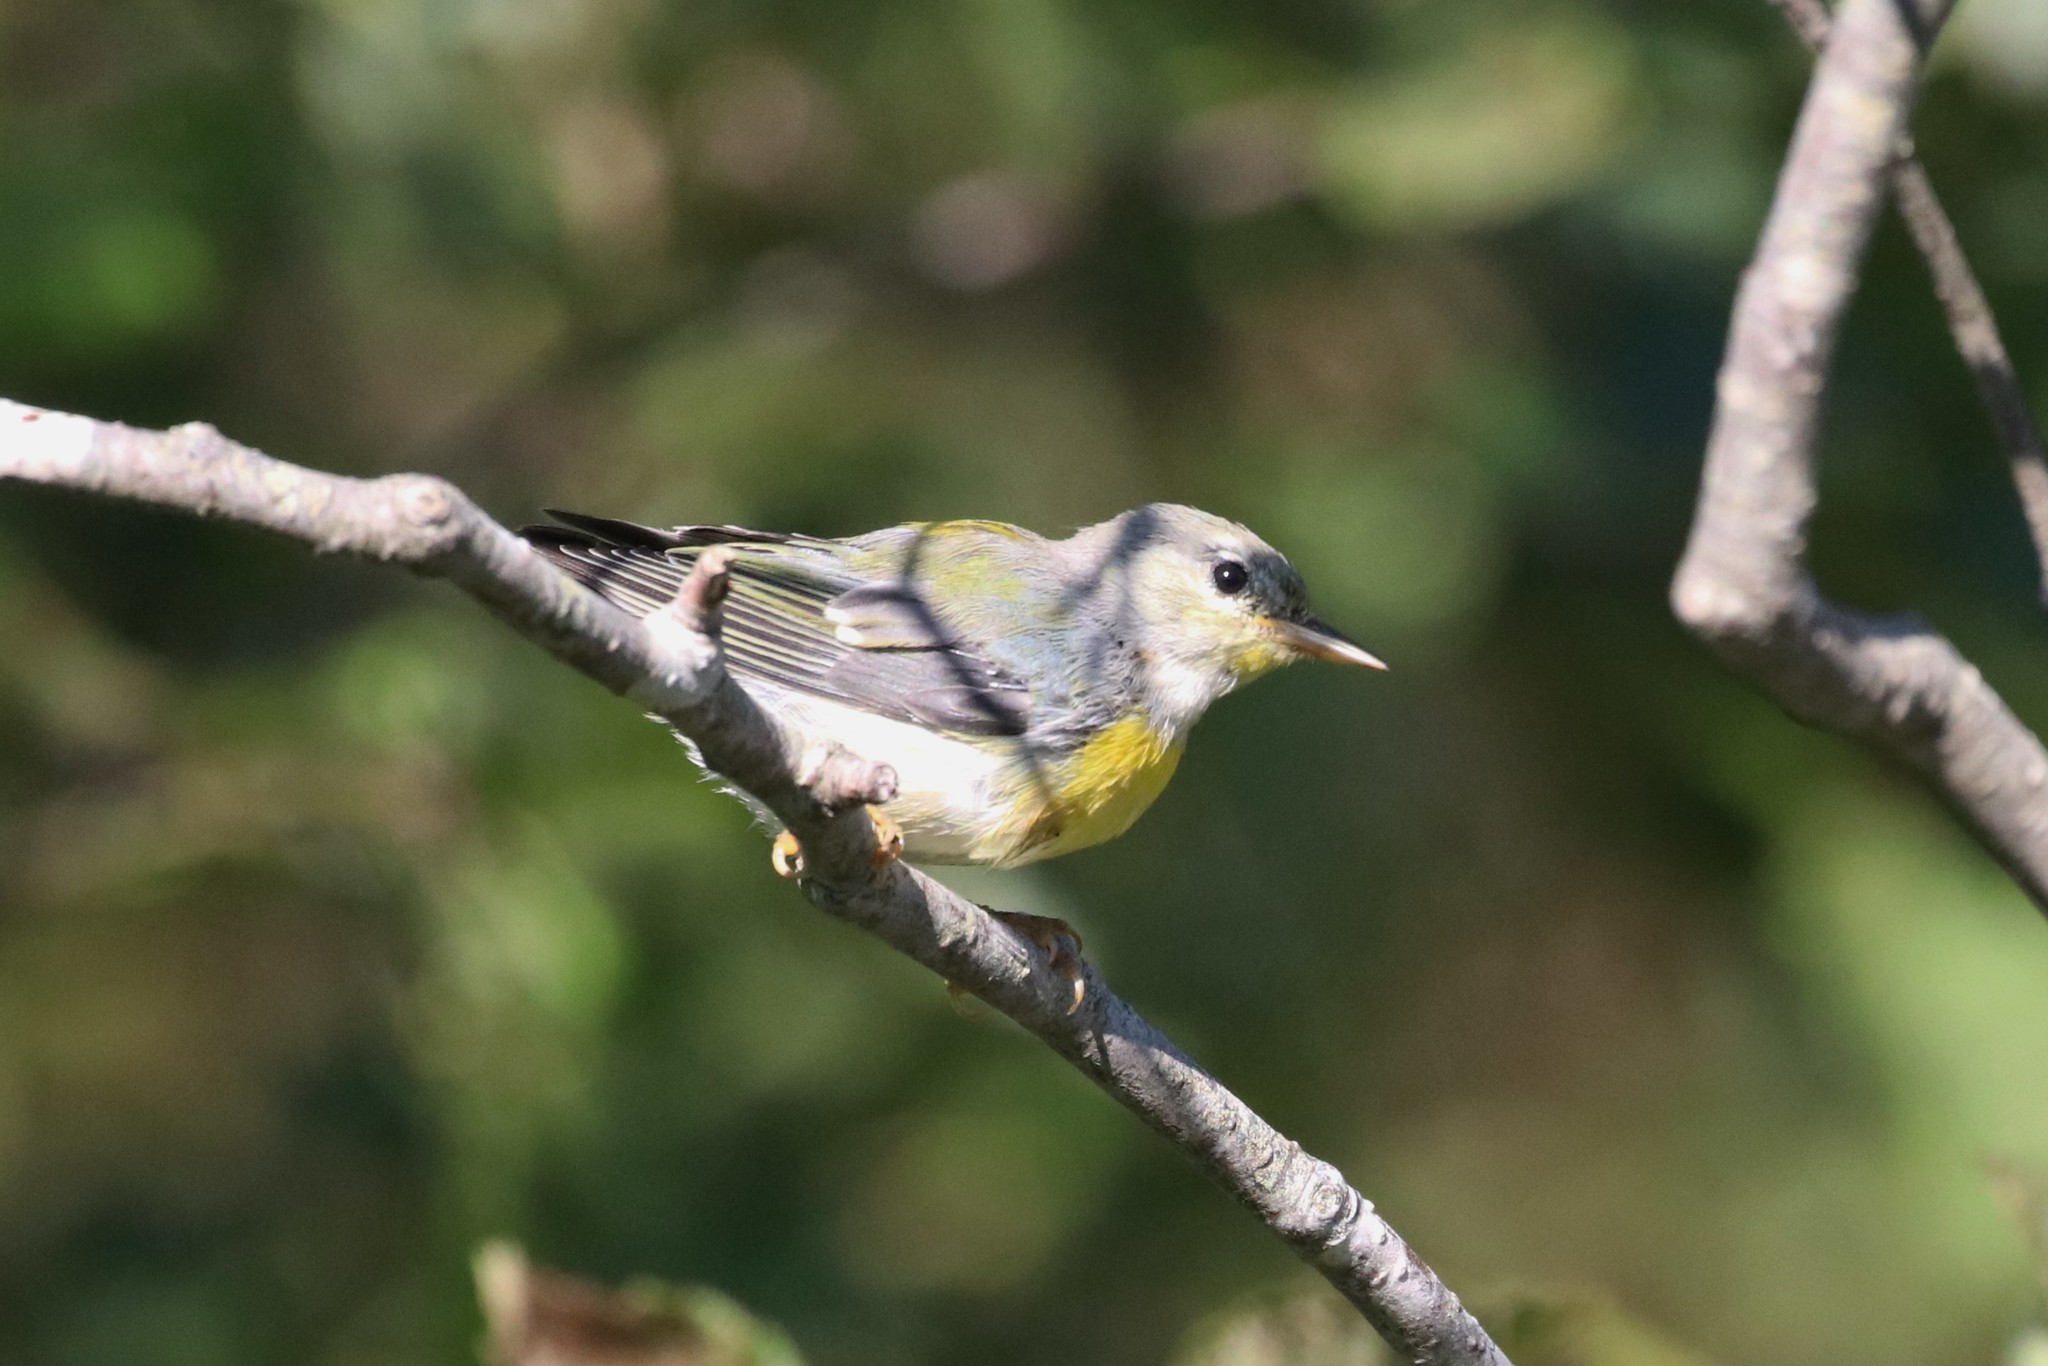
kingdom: Animalia
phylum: Chordata
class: Aves
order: Passeriformes
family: Parulidae
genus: Setophaga
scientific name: Setophaga americana
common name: Northern parula
